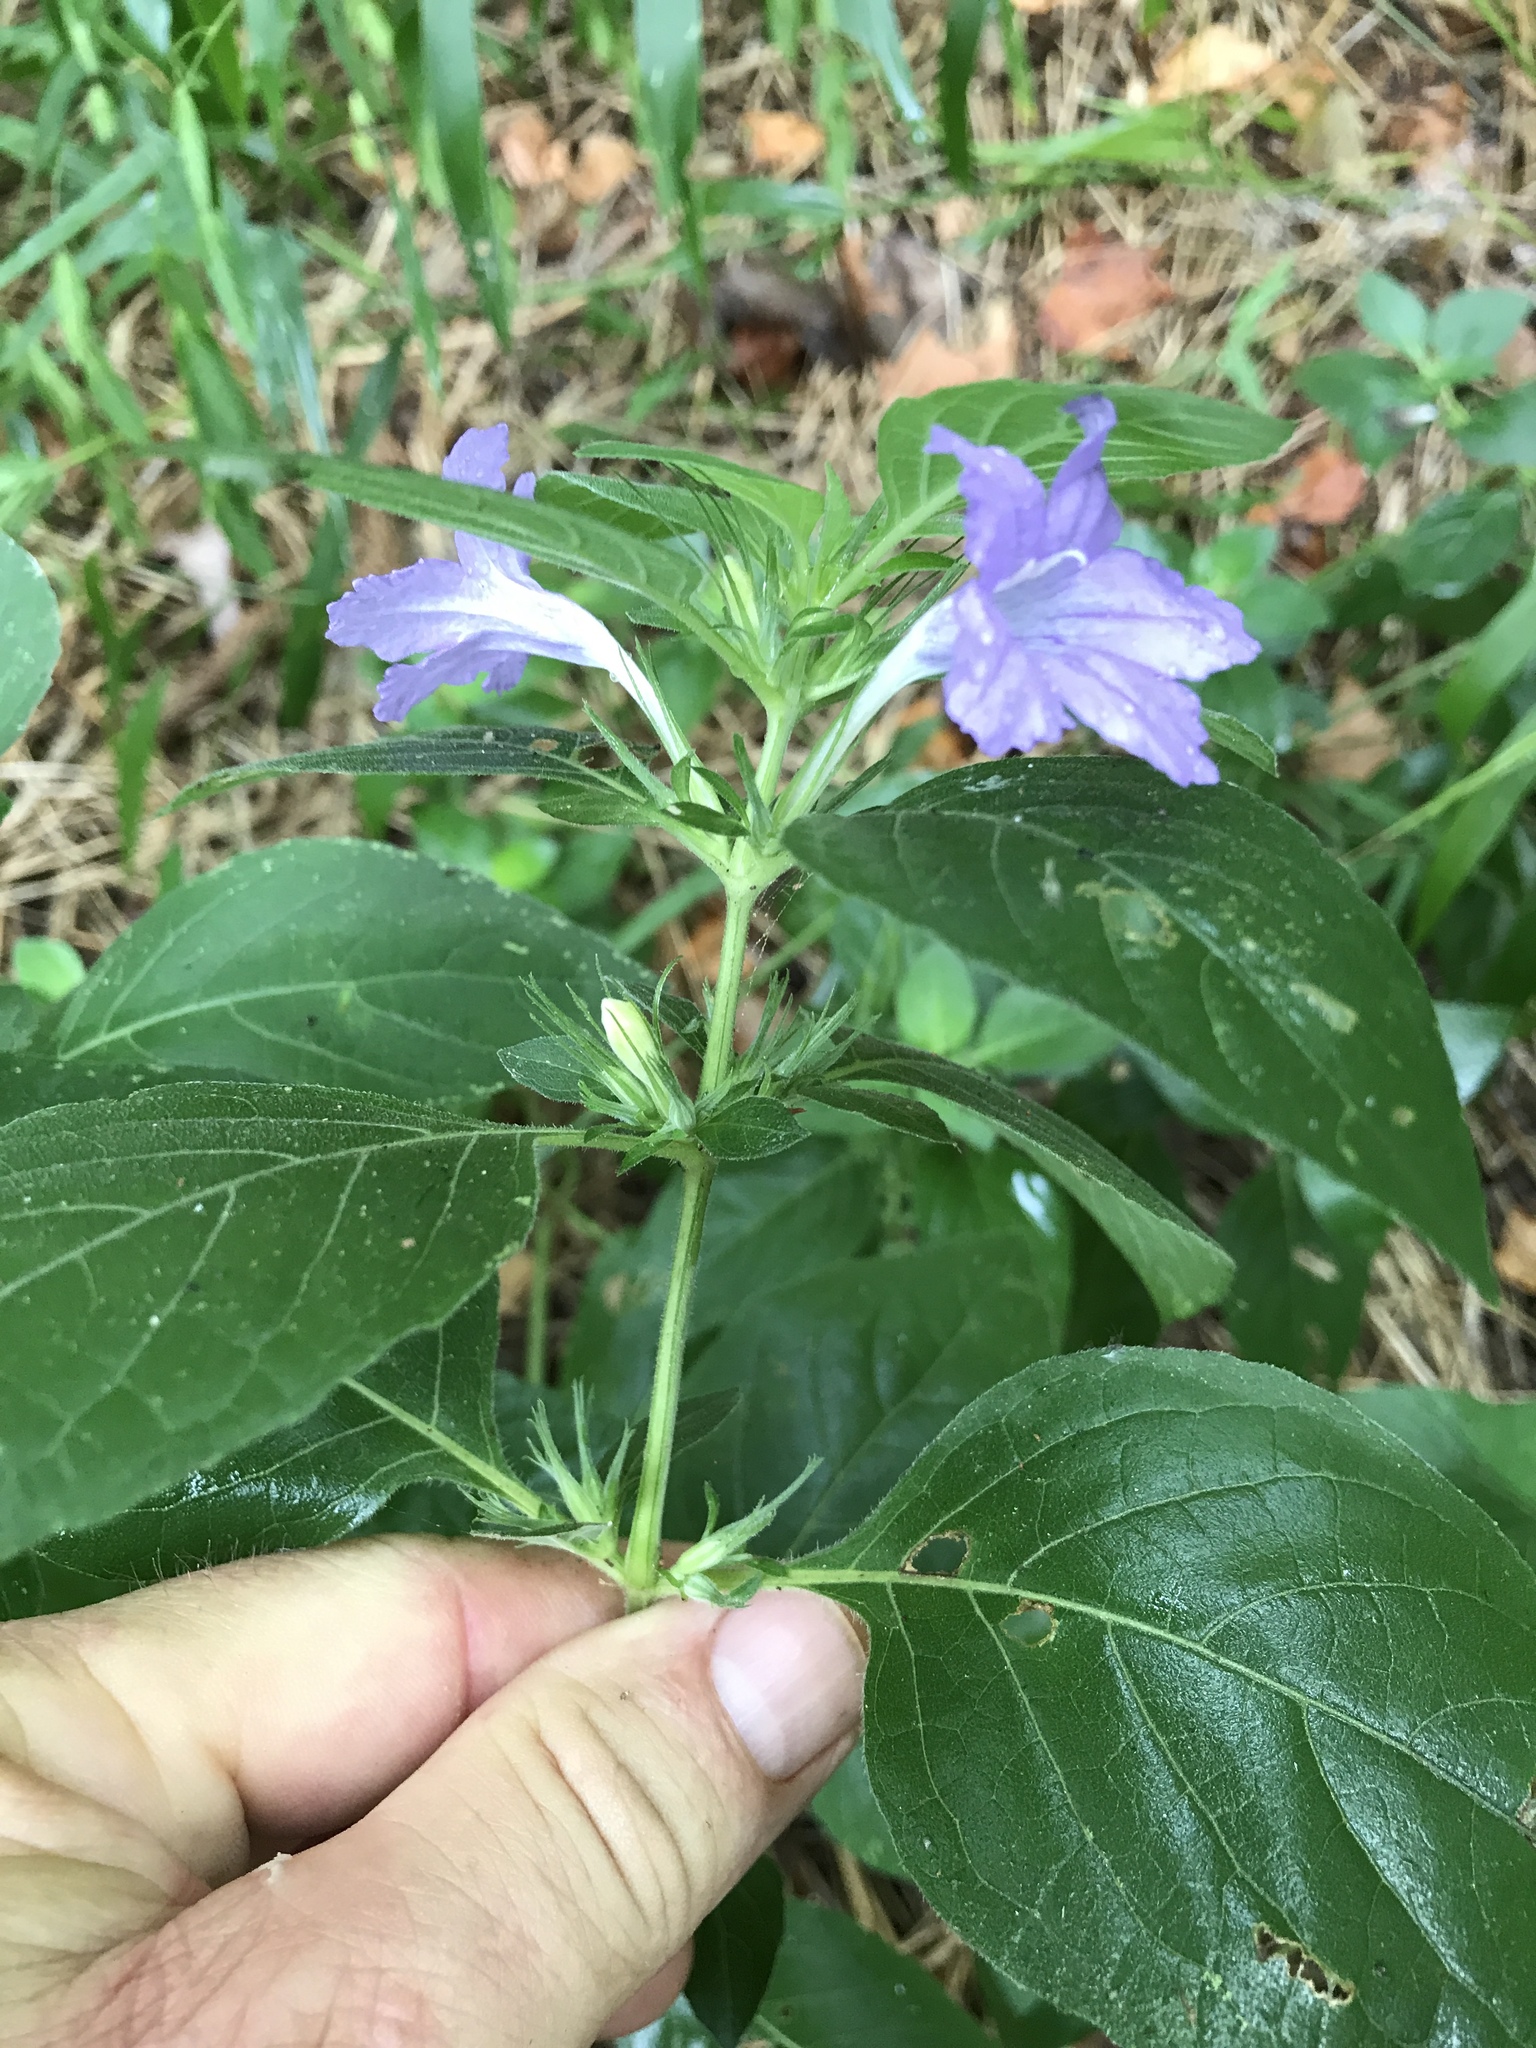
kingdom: Plantae
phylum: Tracheophyta
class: Magnoliopsida
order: Lamiales
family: Acanthaceae
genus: Ruellia
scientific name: Ruellia drummondiana
